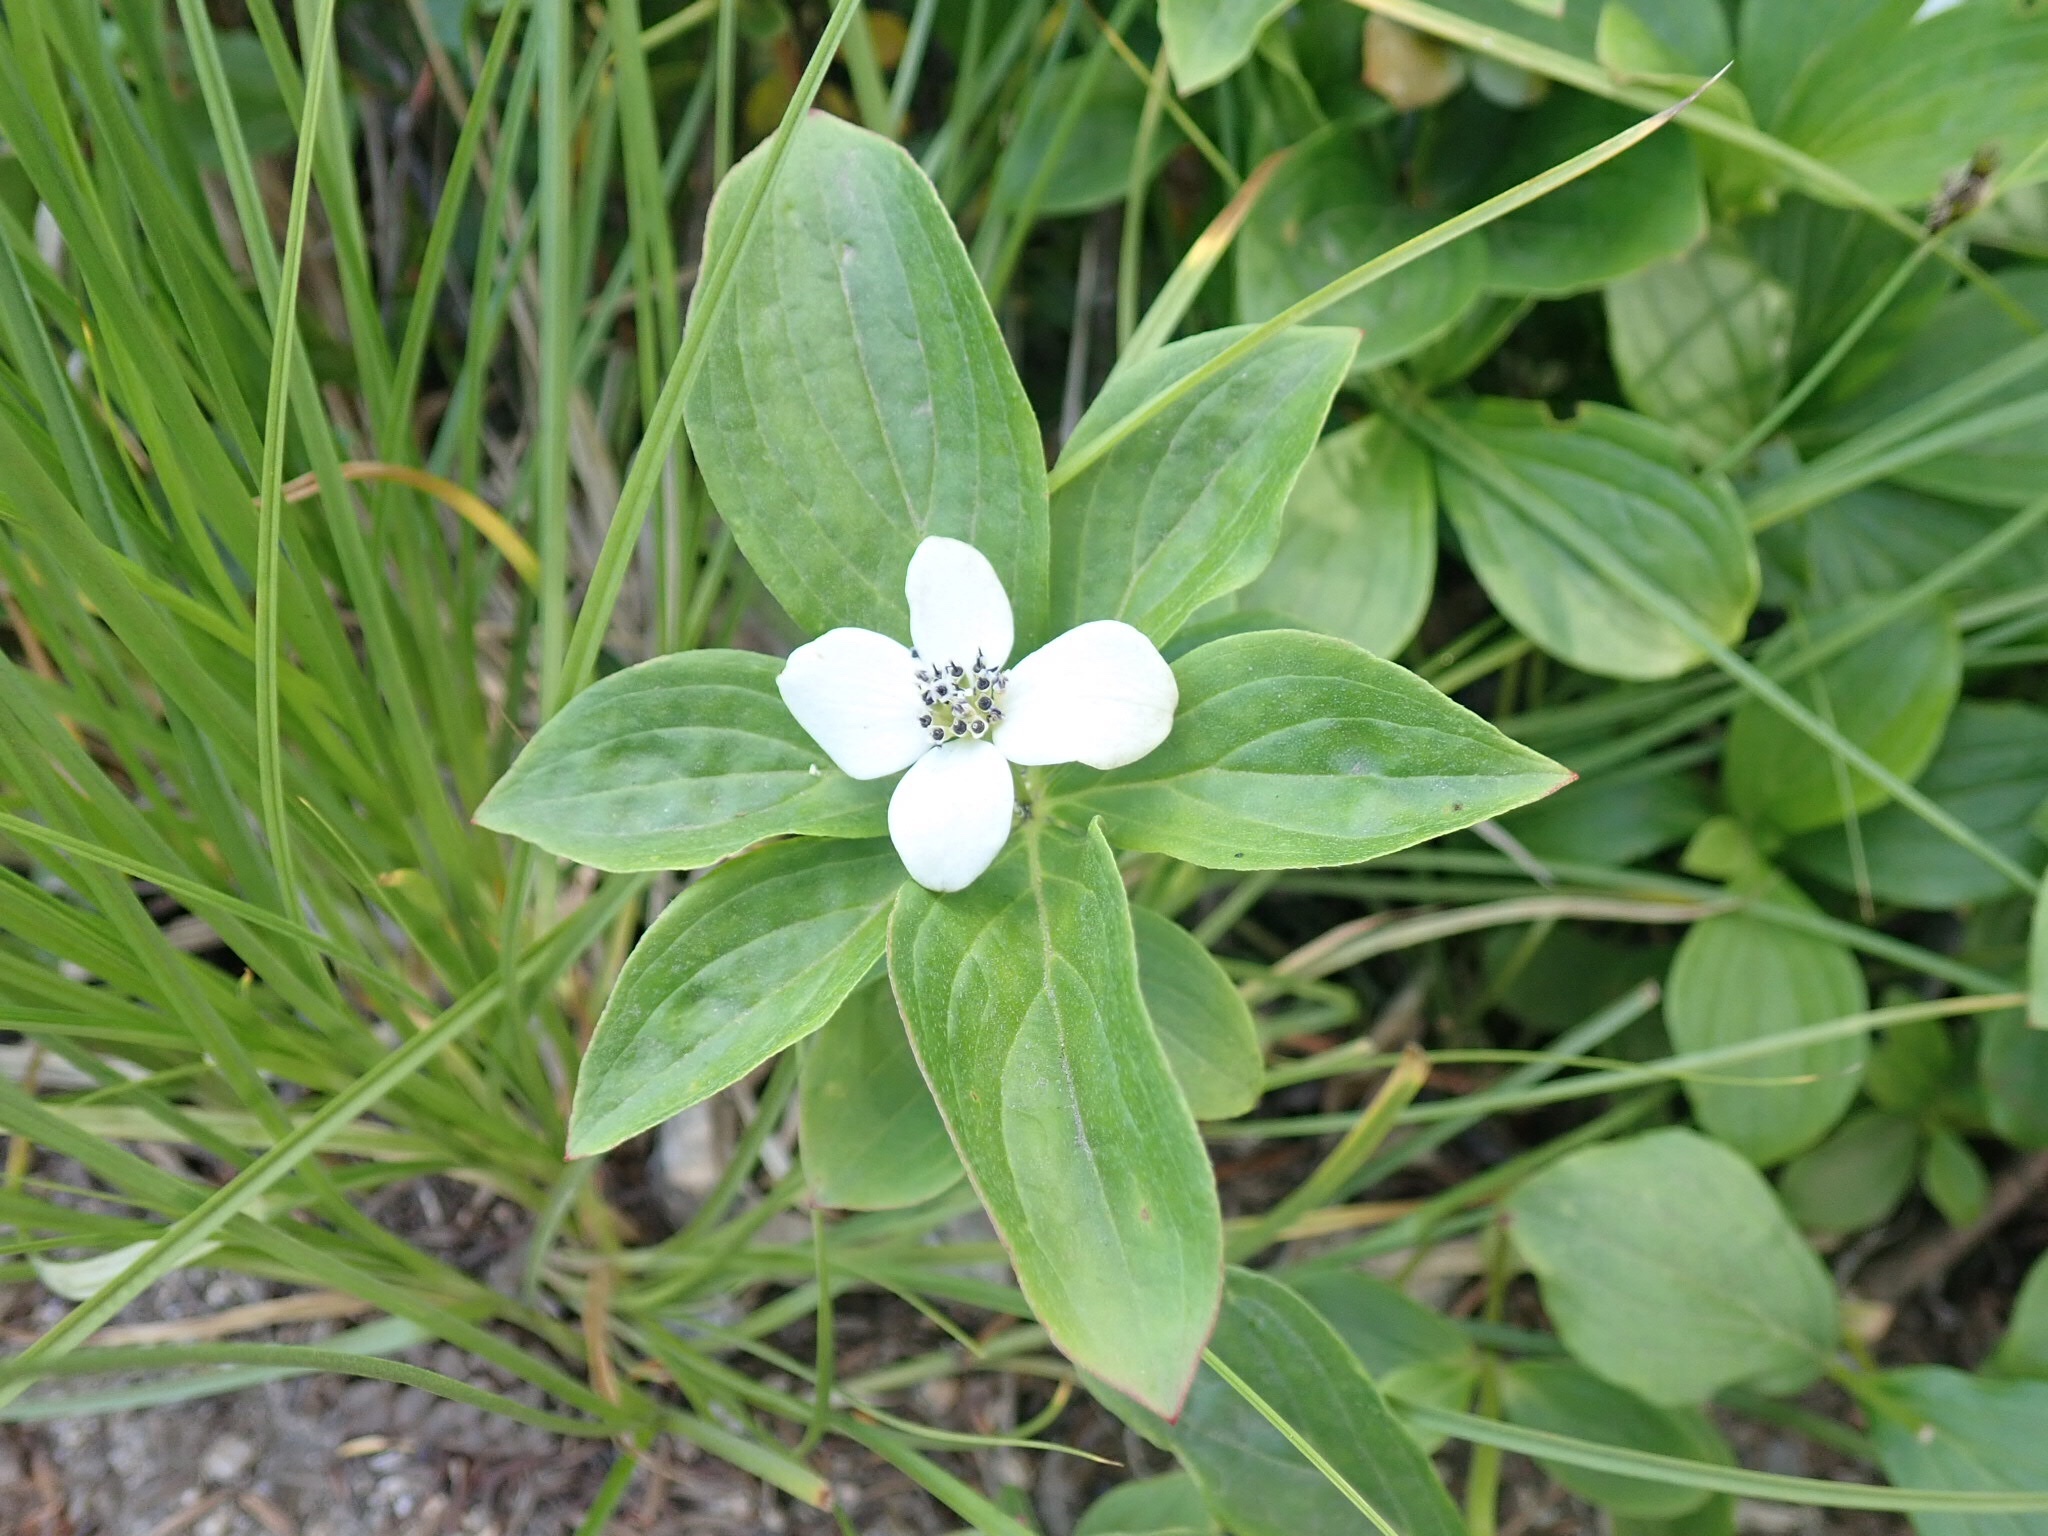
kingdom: Plantae
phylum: Tracheophyta
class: Magnoliopsida
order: Cornales
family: Cornaceae
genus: Cornus
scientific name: Cornus unalaschkensis
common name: Alaska bunchberry
